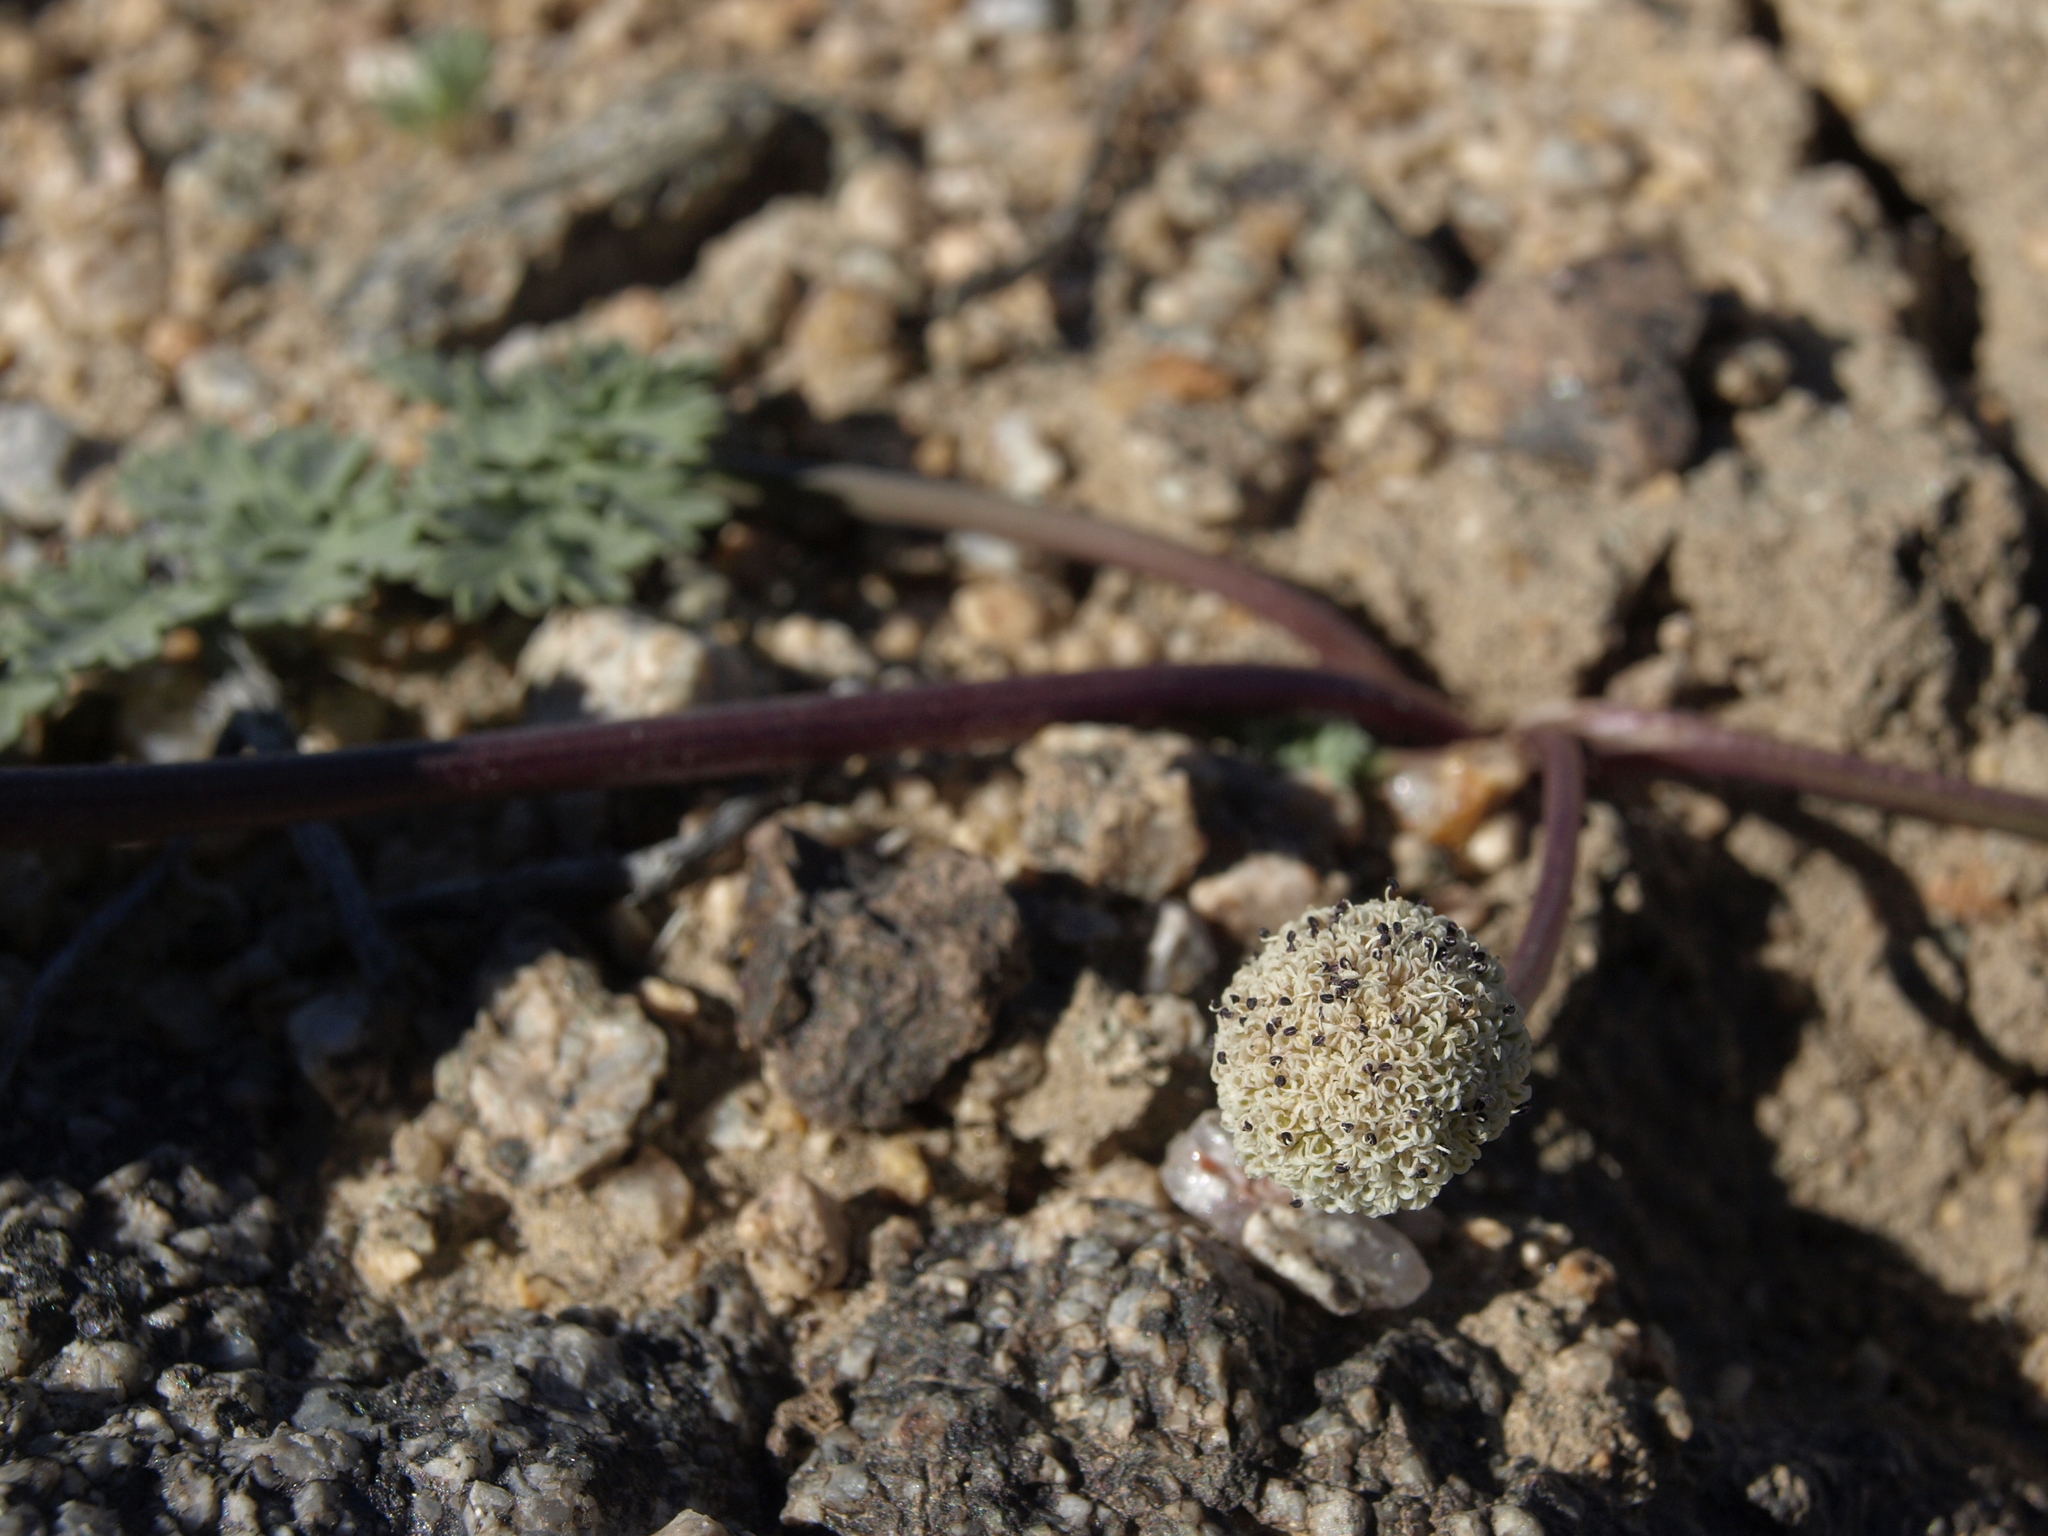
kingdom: Plantae
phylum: Tracheophyta
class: Magnoliopsida
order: Apiales
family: Apiaceae
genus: Cymopterus
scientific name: Cymopterus globosus
